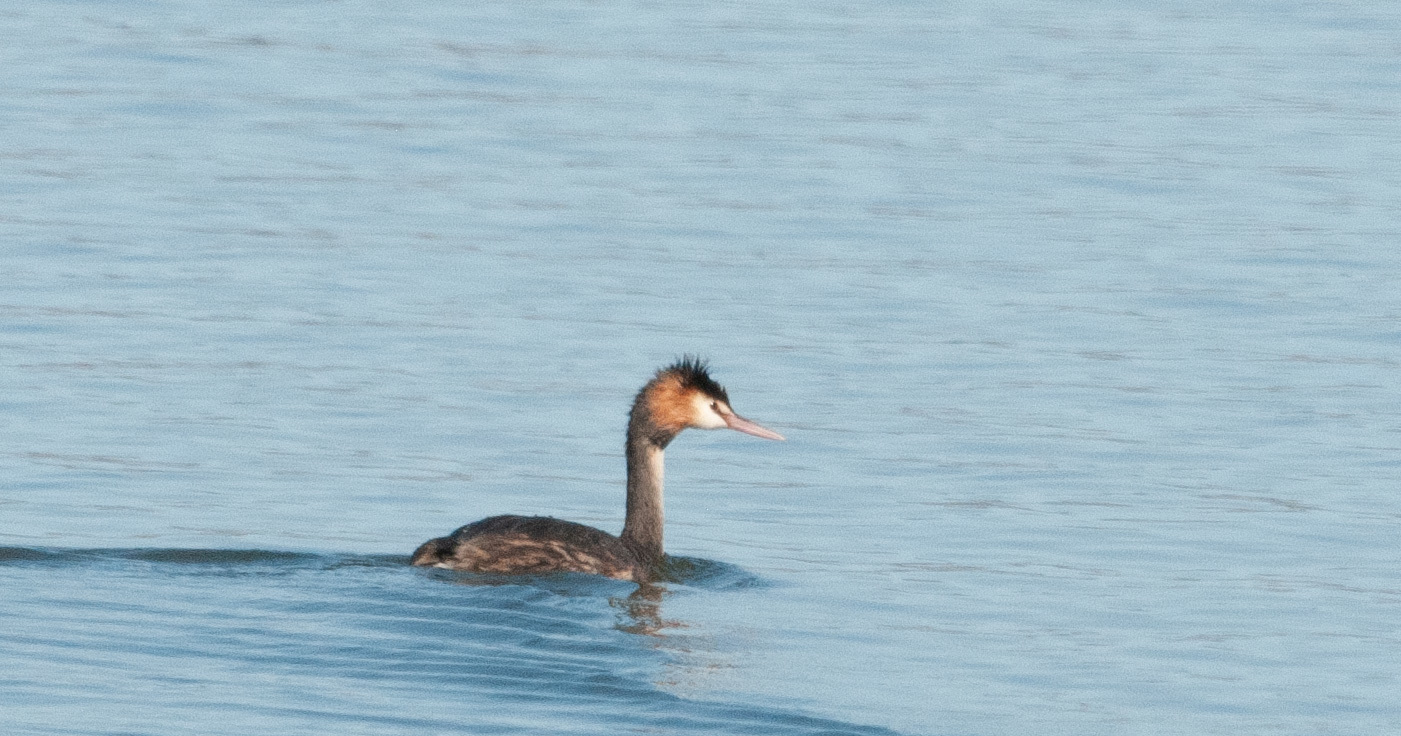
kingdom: Animalia
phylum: Chordata
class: Aves
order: Podicipediformes
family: Podicipedidae
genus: Podiceps
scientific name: Podiceps cristatus
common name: Great crested grebe
